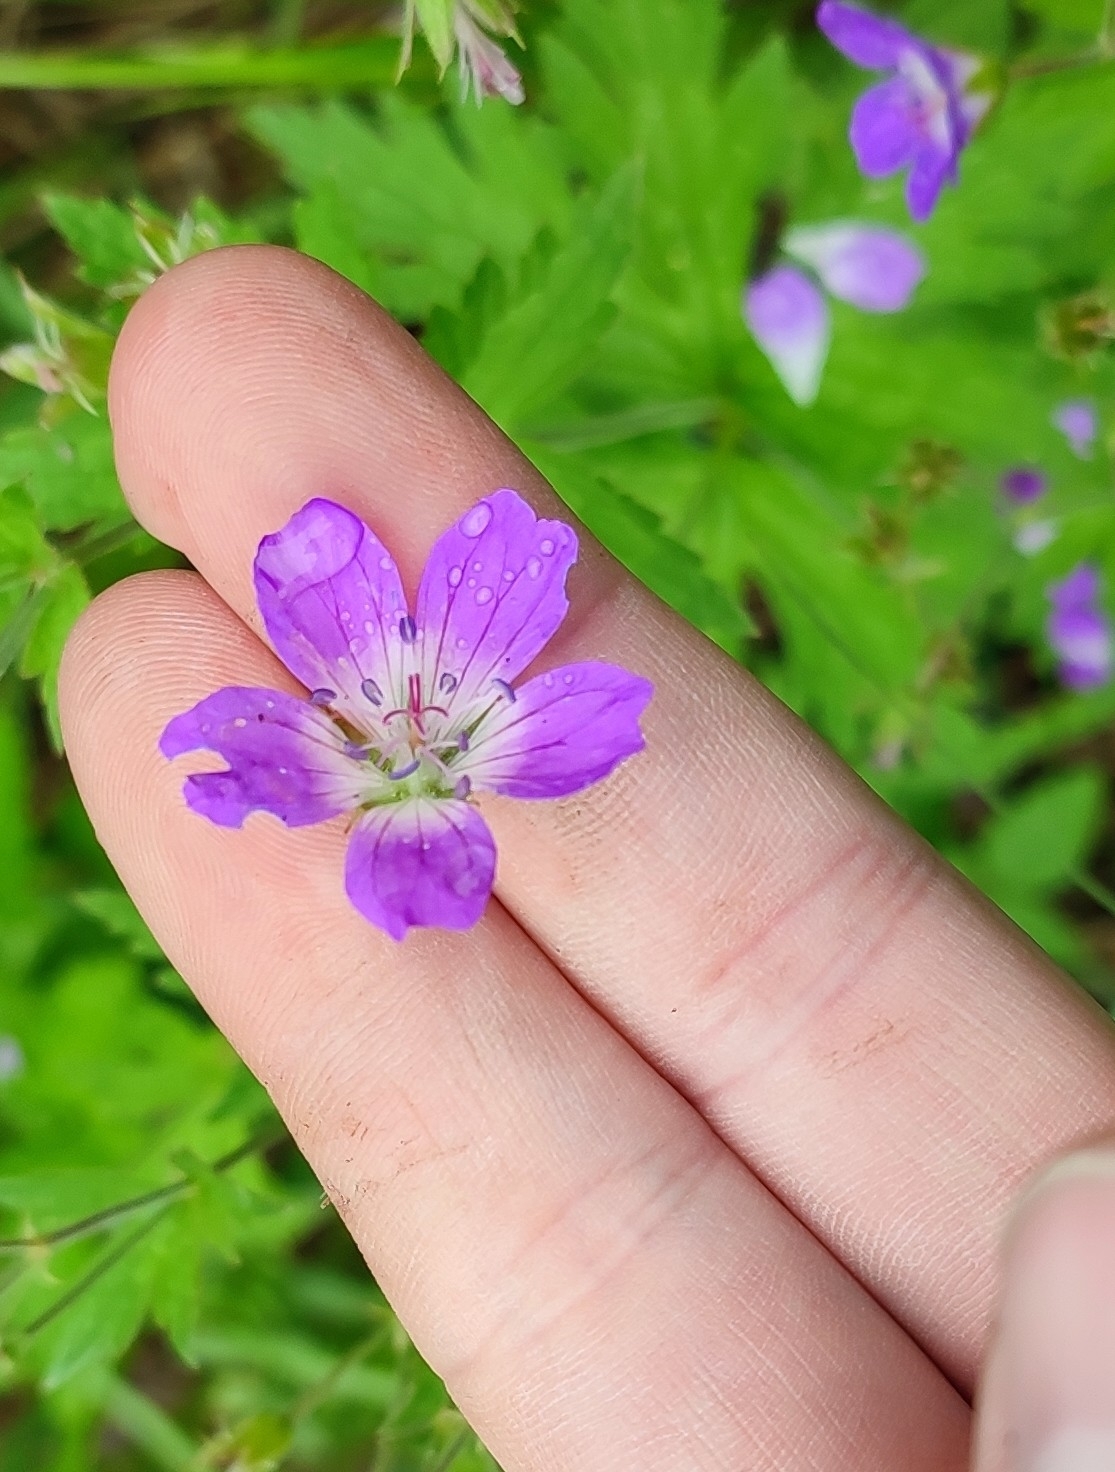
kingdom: Plantae
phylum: Tracheophyta
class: Magnoliopsida
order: Geraniales
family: Geraniaceae
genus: Geranium
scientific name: Geranium sylvaticum
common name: Wood crane's-bill
